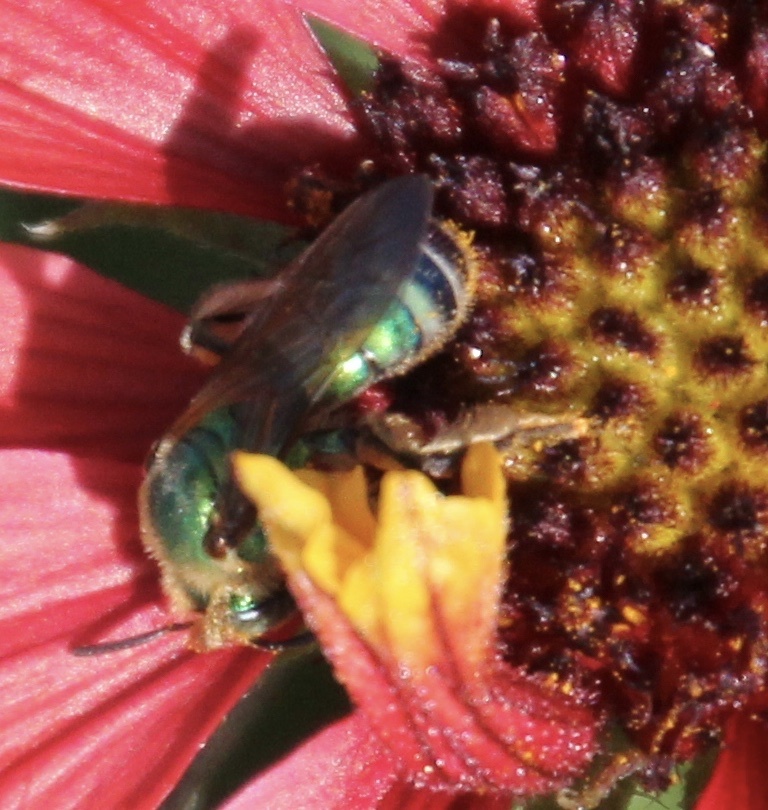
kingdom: Animalia
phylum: Arthropoda
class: Insecta
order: Hymenoptera
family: Halictidae
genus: Agapostemon
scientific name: Agapostemon splendens
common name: Brown-winged striped sweat bee
